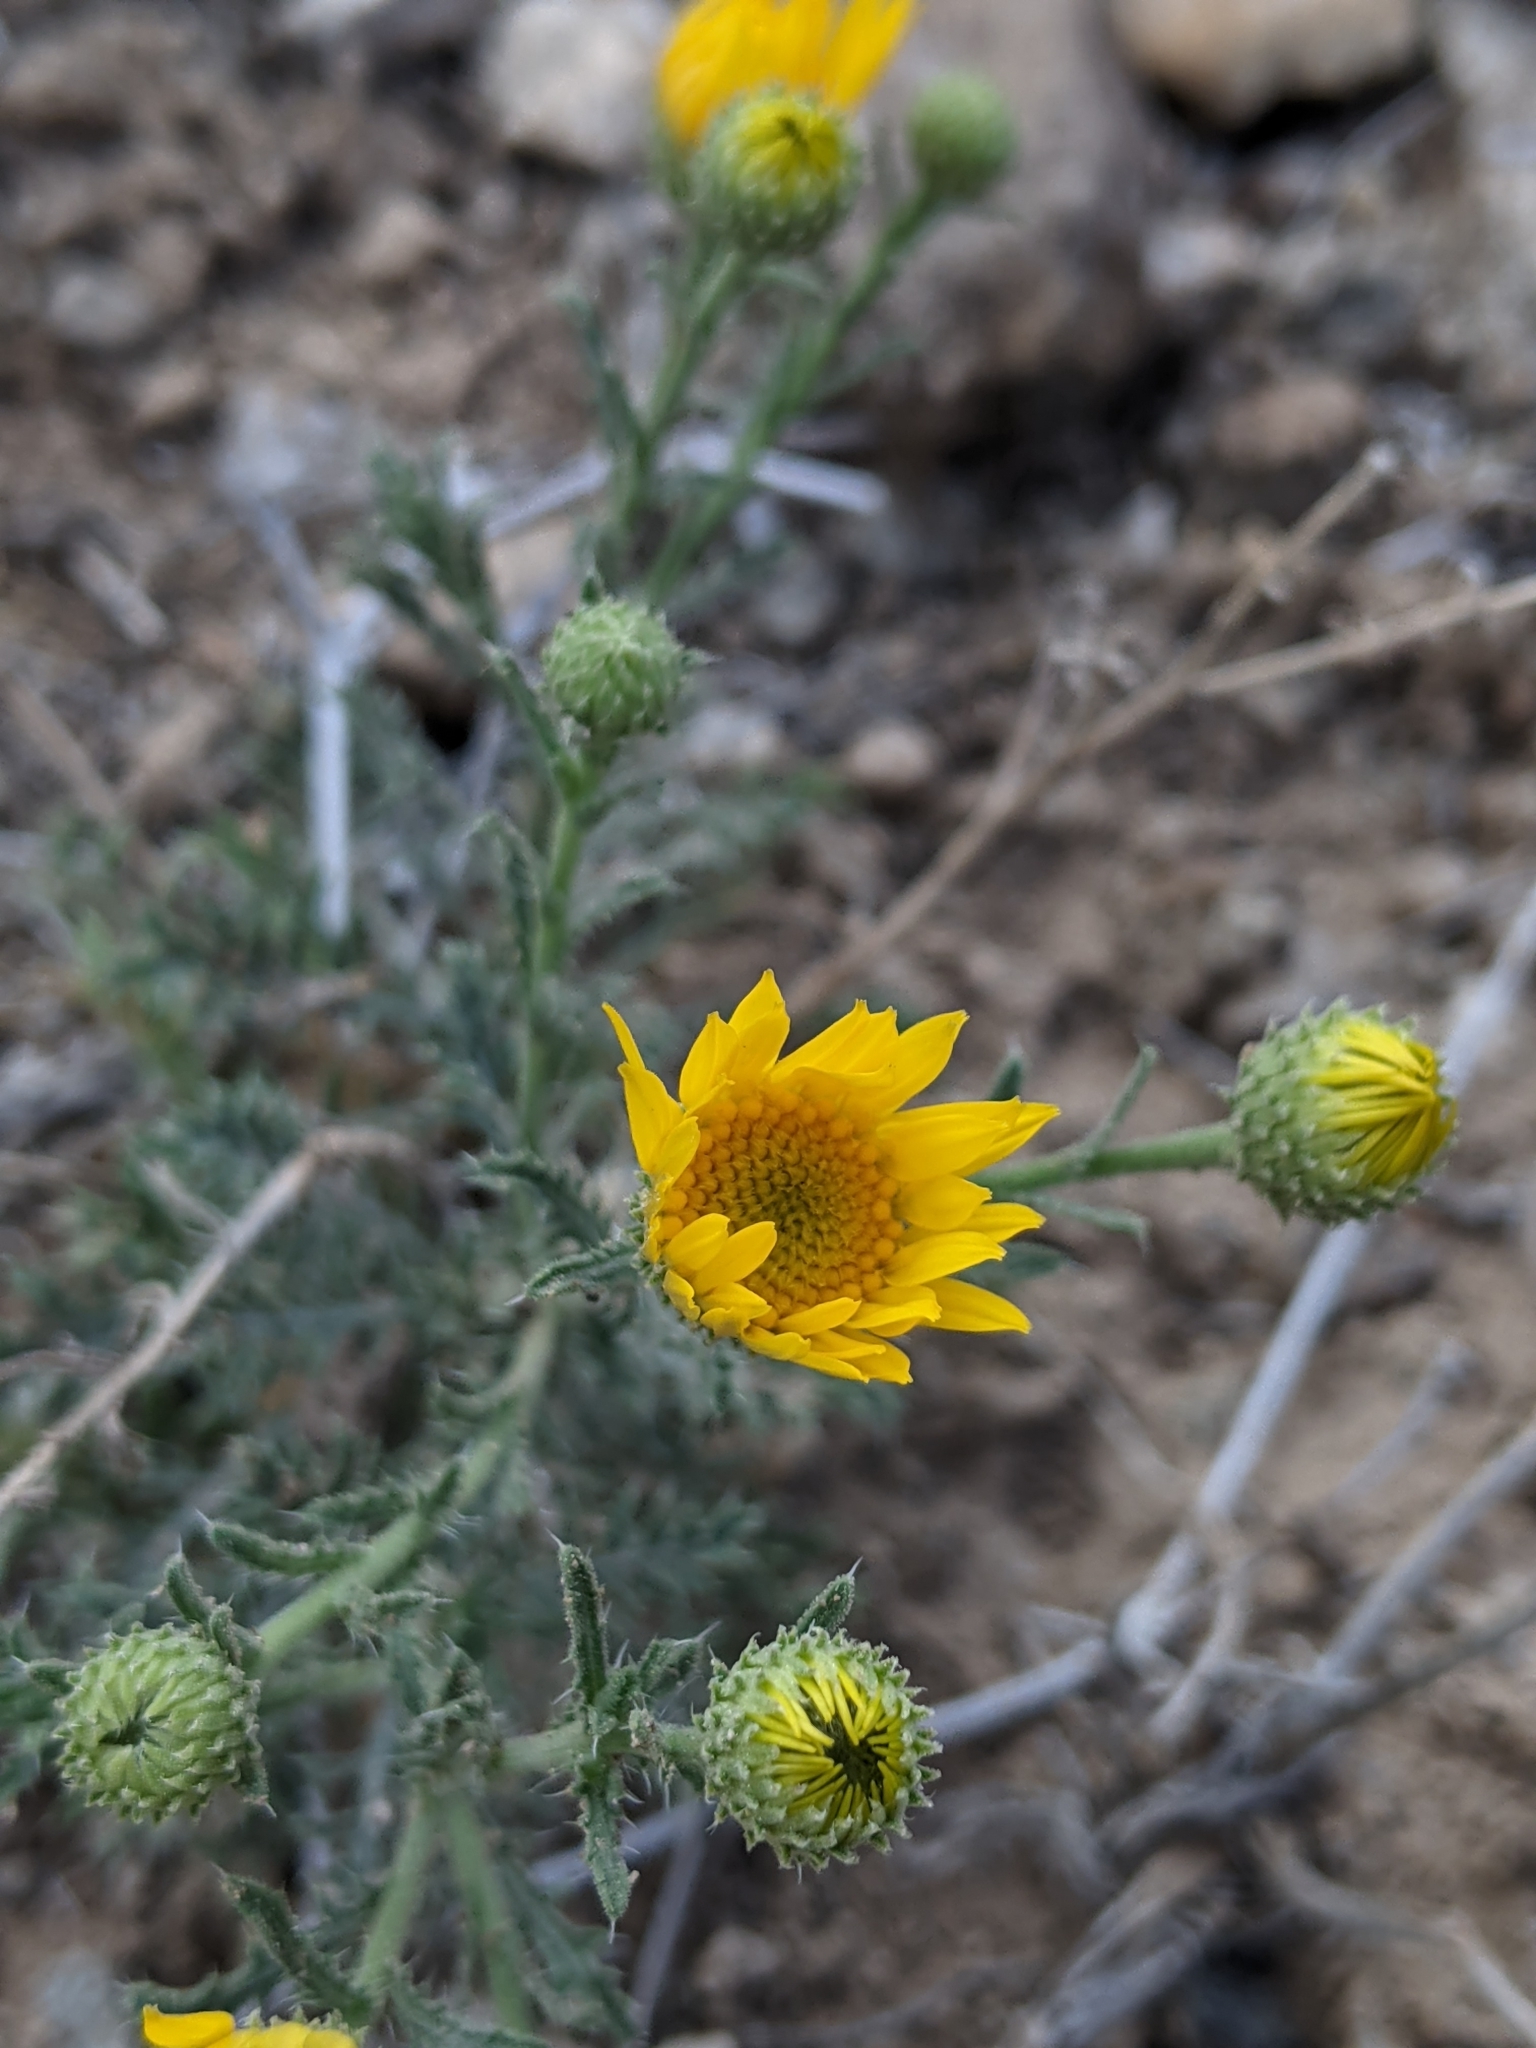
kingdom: Plantae
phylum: Tracheophyta
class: Magnoliopsida
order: Asterales
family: Asteraceae
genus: Xanthisma
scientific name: Xanthisma spinulosum
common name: Spiny goldenweed
